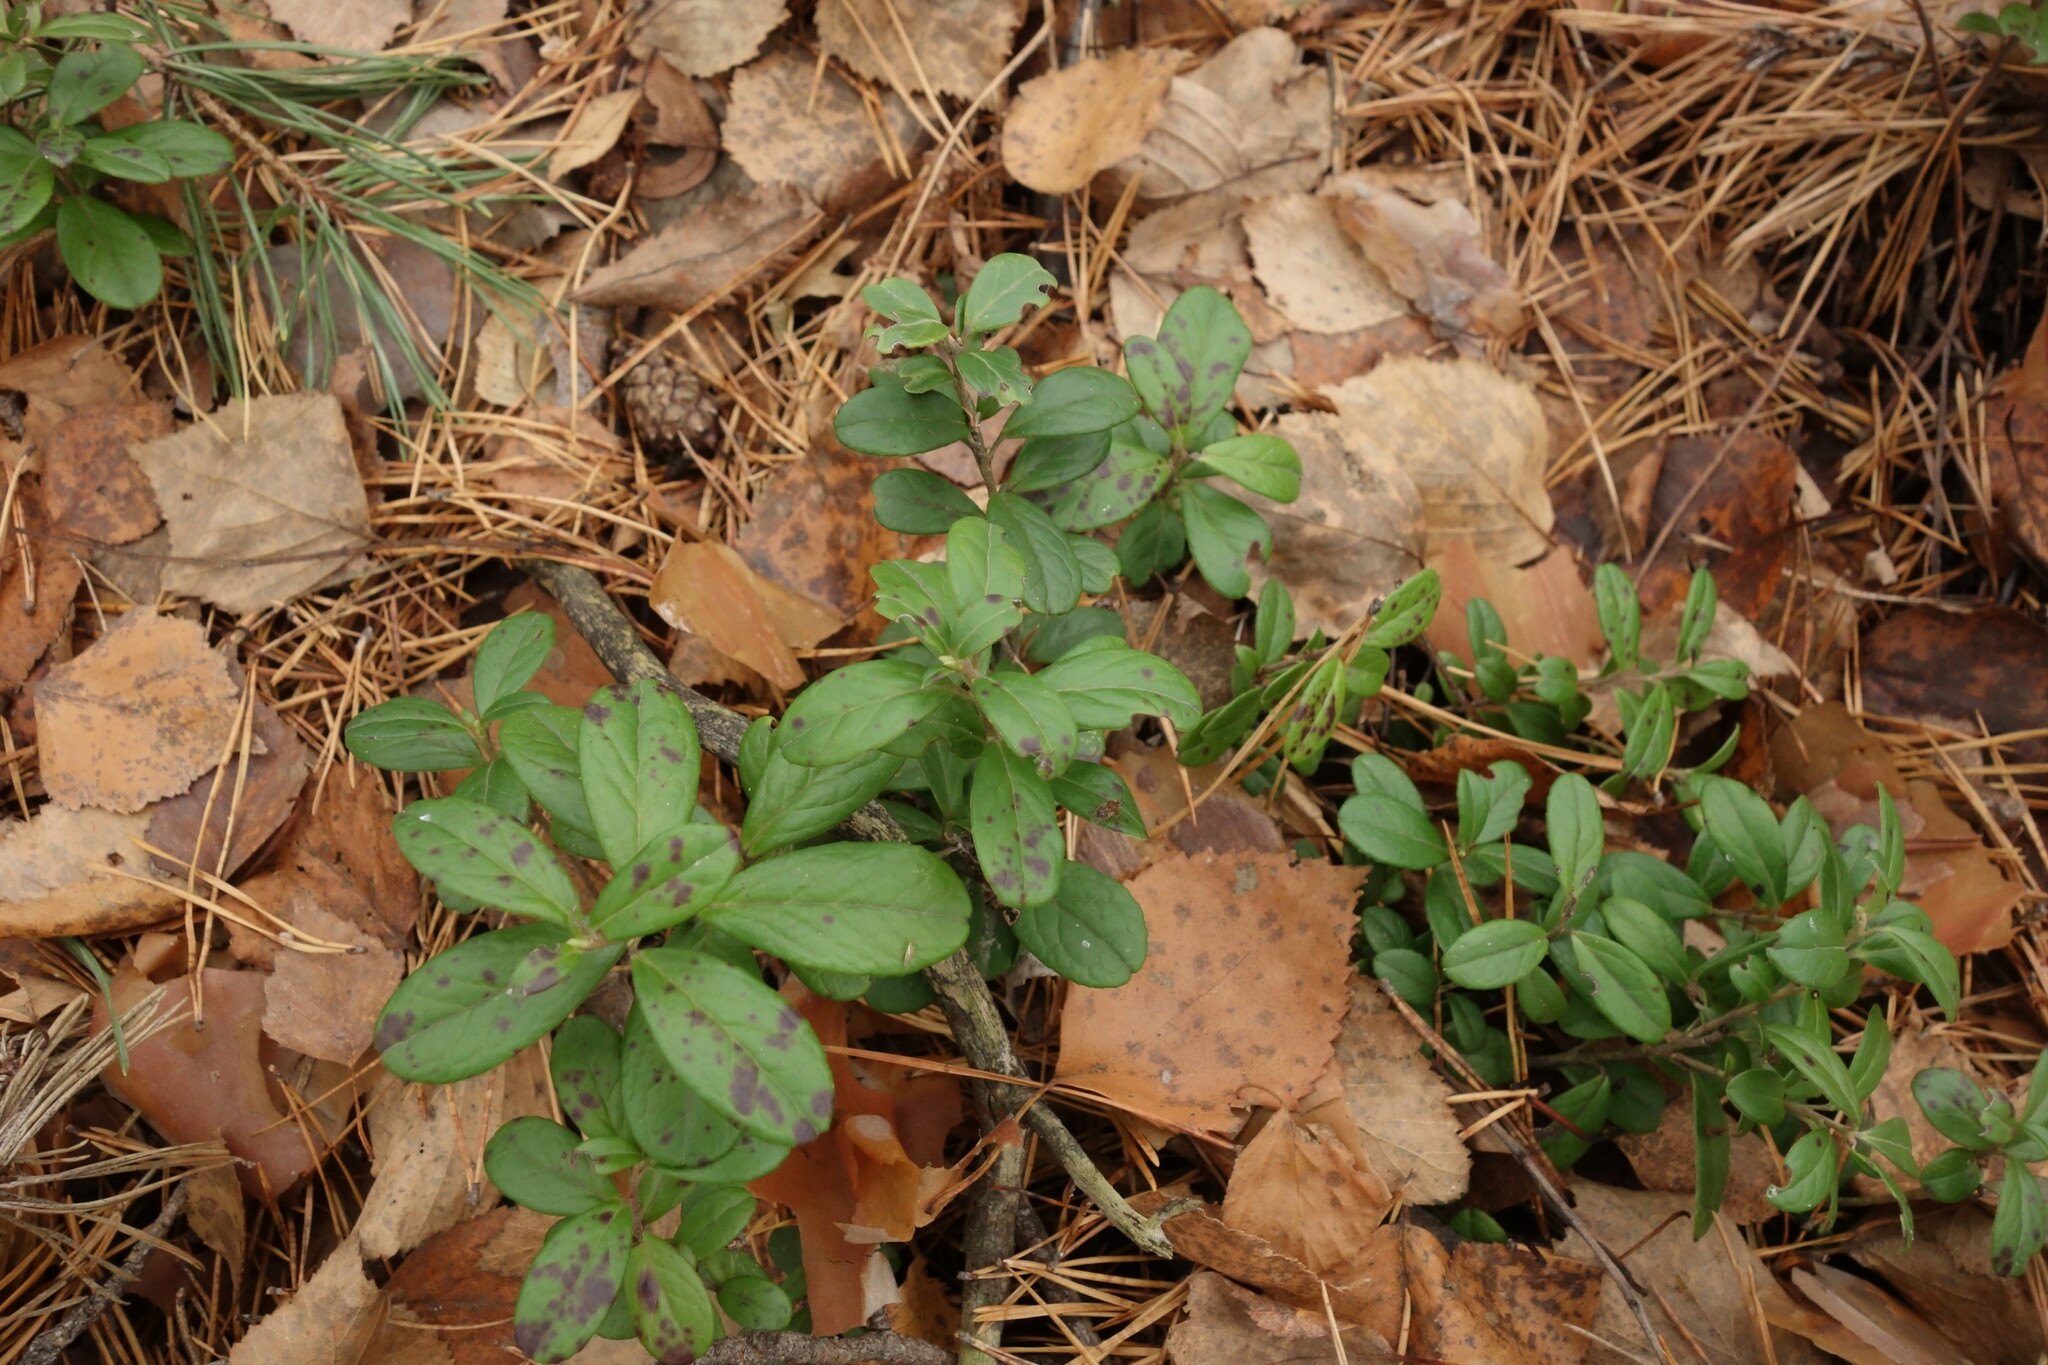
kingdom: Plantae
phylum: Tracheophyta
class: Magnoliopsida
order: Ericales
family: Ericaceae
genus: Vaccinium
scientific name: Vaccinium vitis-idaea
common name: Cowberry
